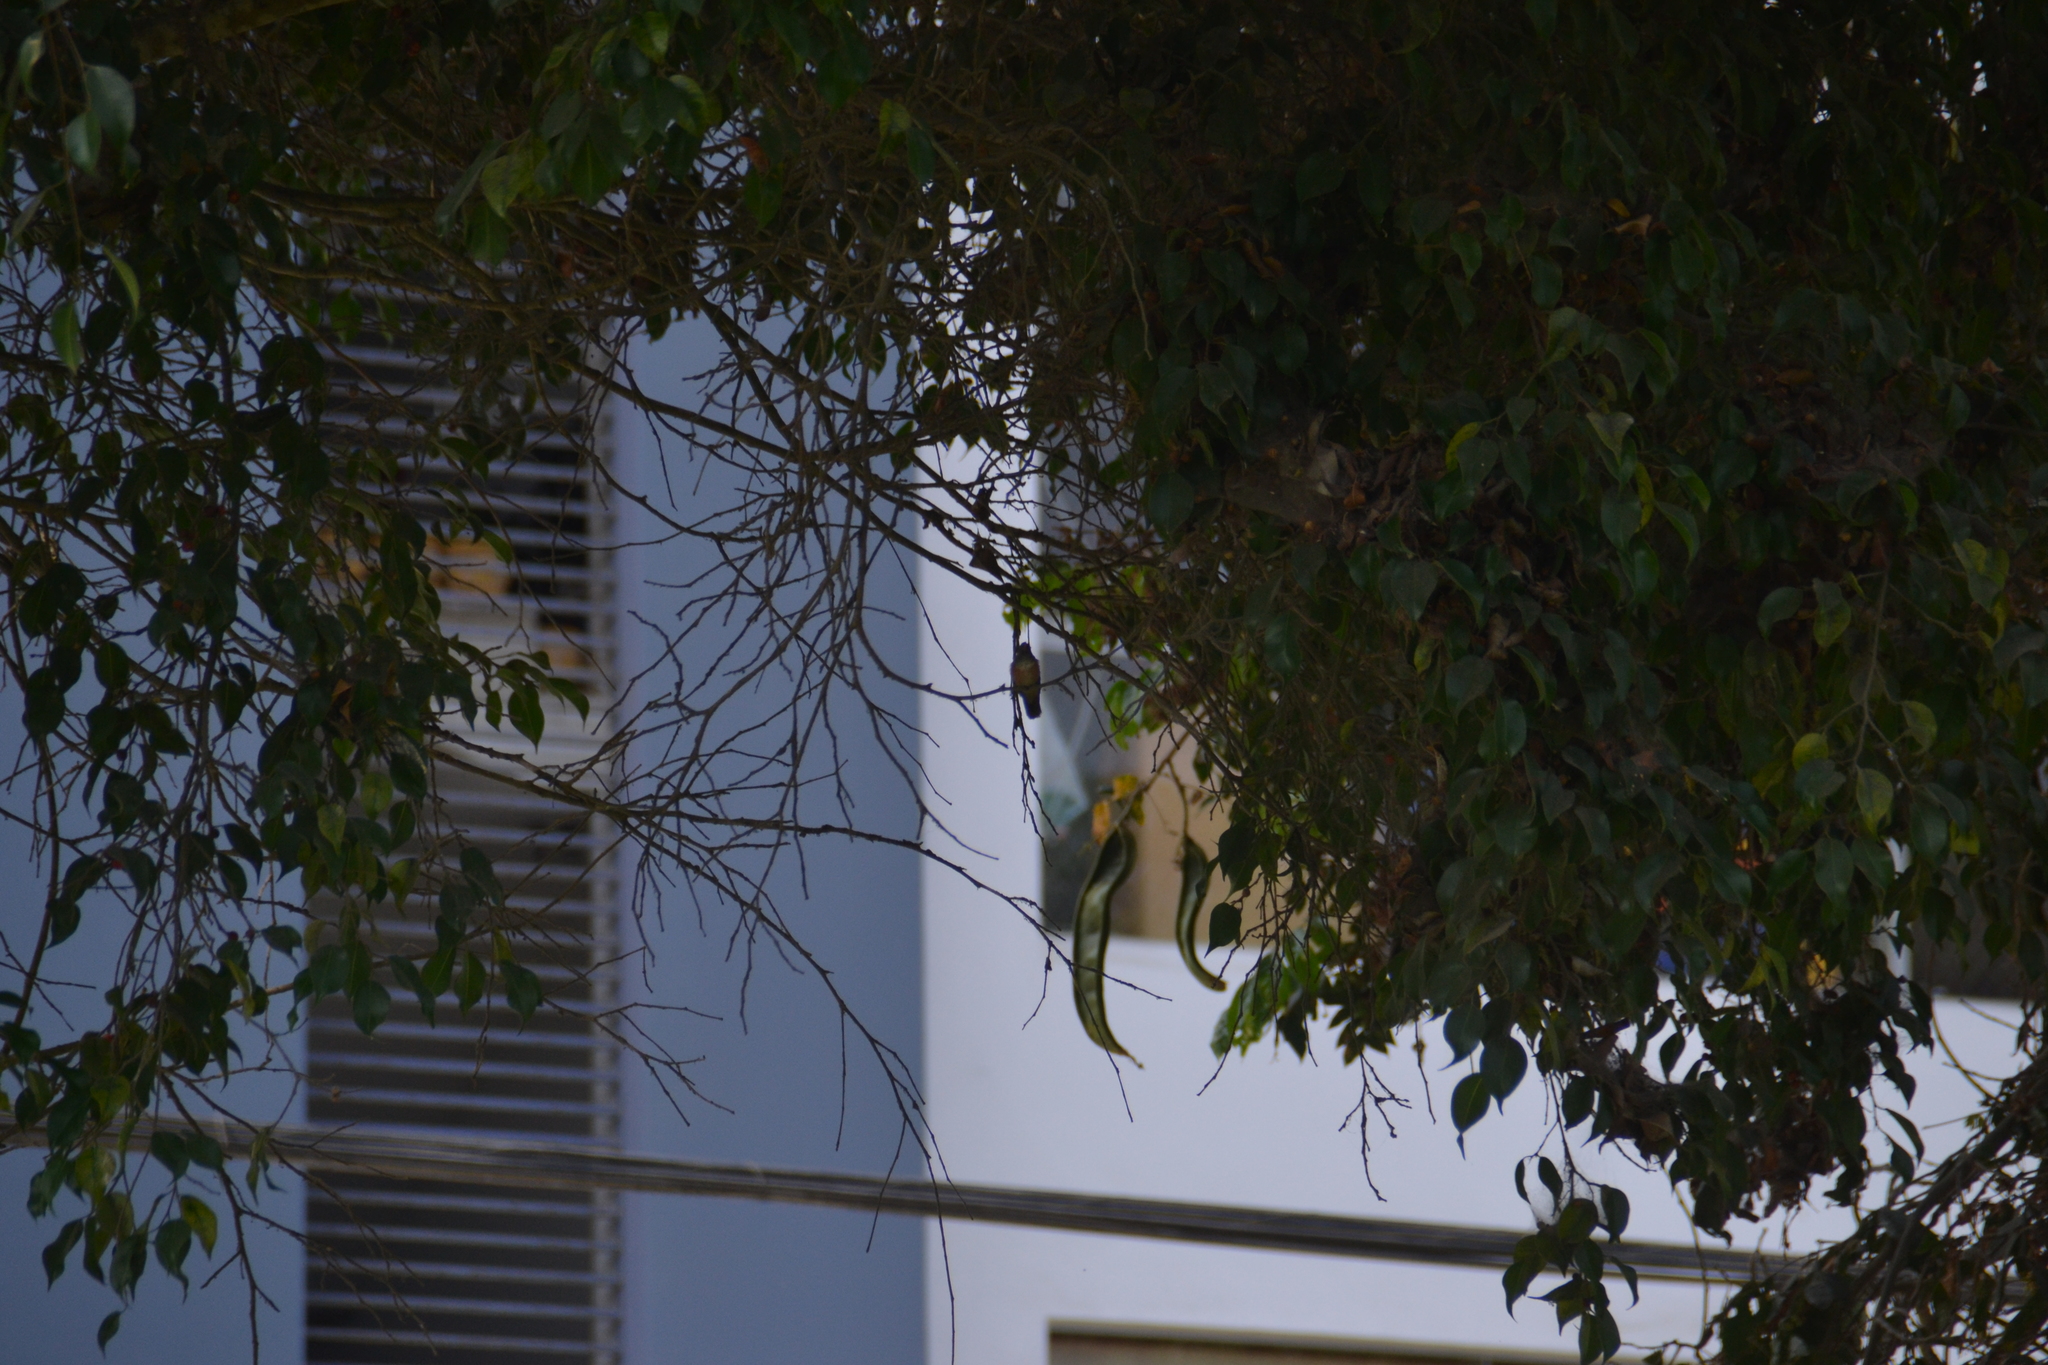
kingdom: Animalia
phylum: Chordata
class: Aves
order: Apodiformes
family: Trochilidae
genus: Amazilis
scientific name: Amazilis amazilia
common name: Amazilia hummingbird
